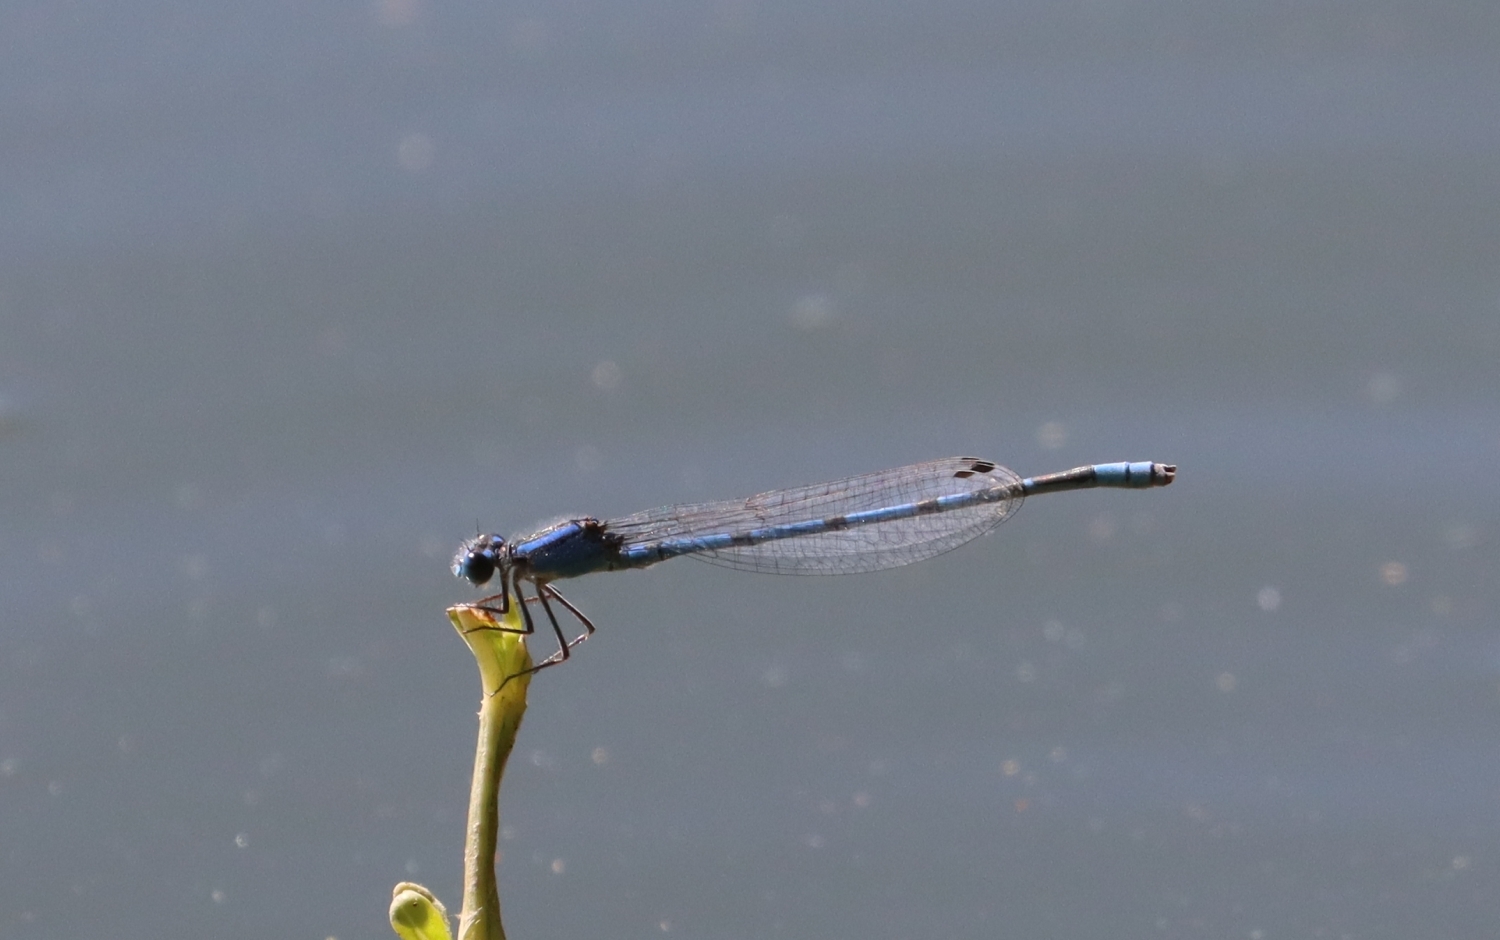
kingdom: Animalia
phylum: Arthropoda
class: Insecta
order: Odonata
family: Coenagrionidae
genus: Enallagma
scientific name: Enallagma civile
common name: Damselfly
